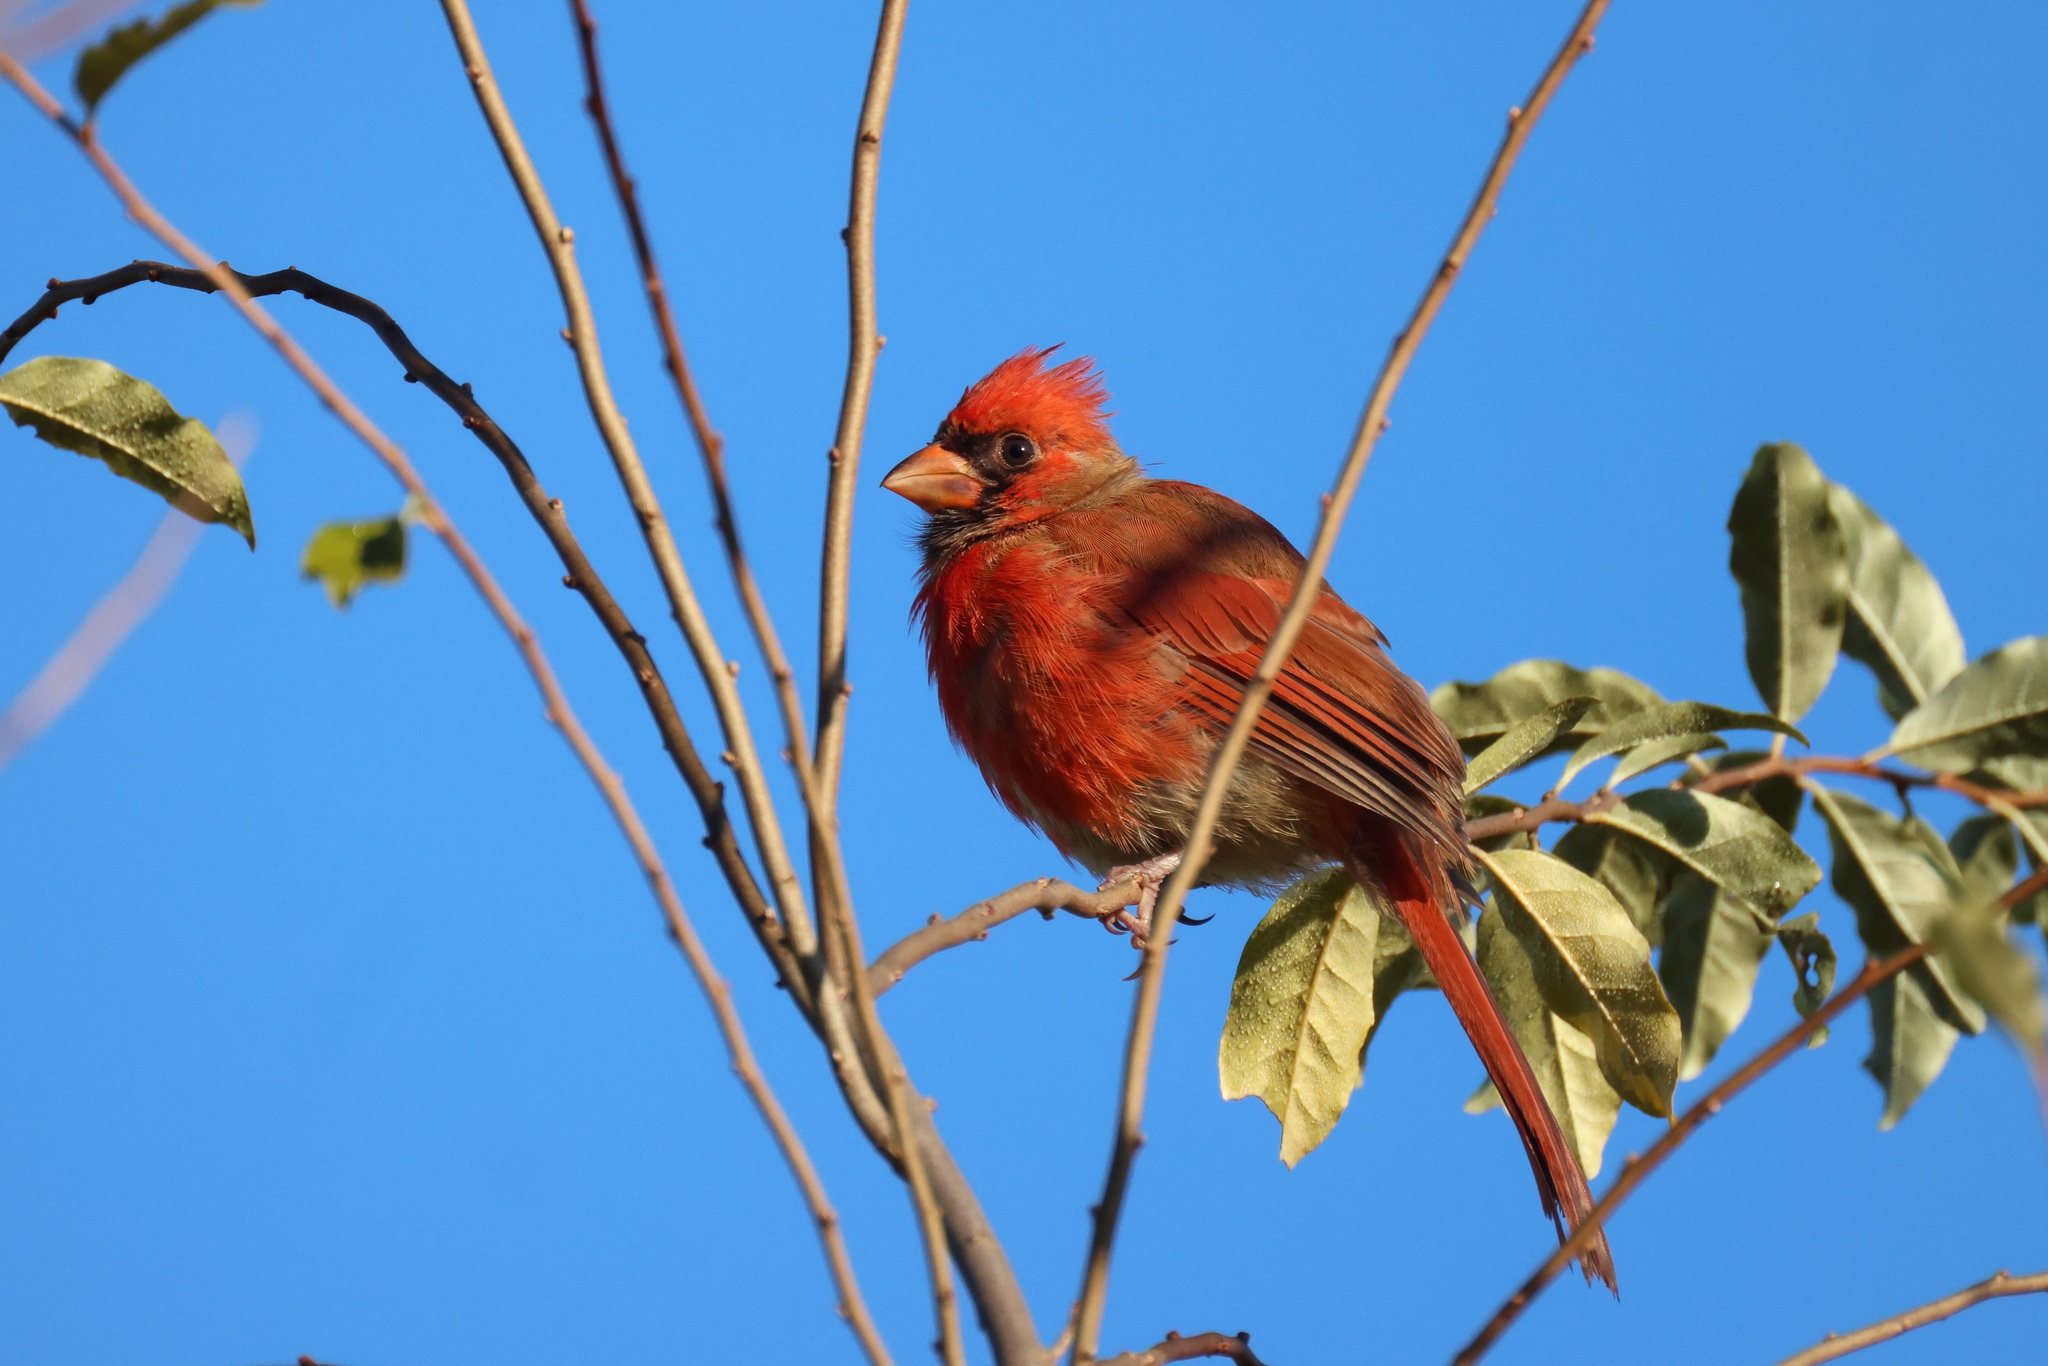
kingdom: Animalia
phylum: Chordata
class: Aves
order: Passeriformes
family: Cardinalidae
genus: Cardinalis
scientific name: Cardinalis cardinalis
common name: Northern cardinal
